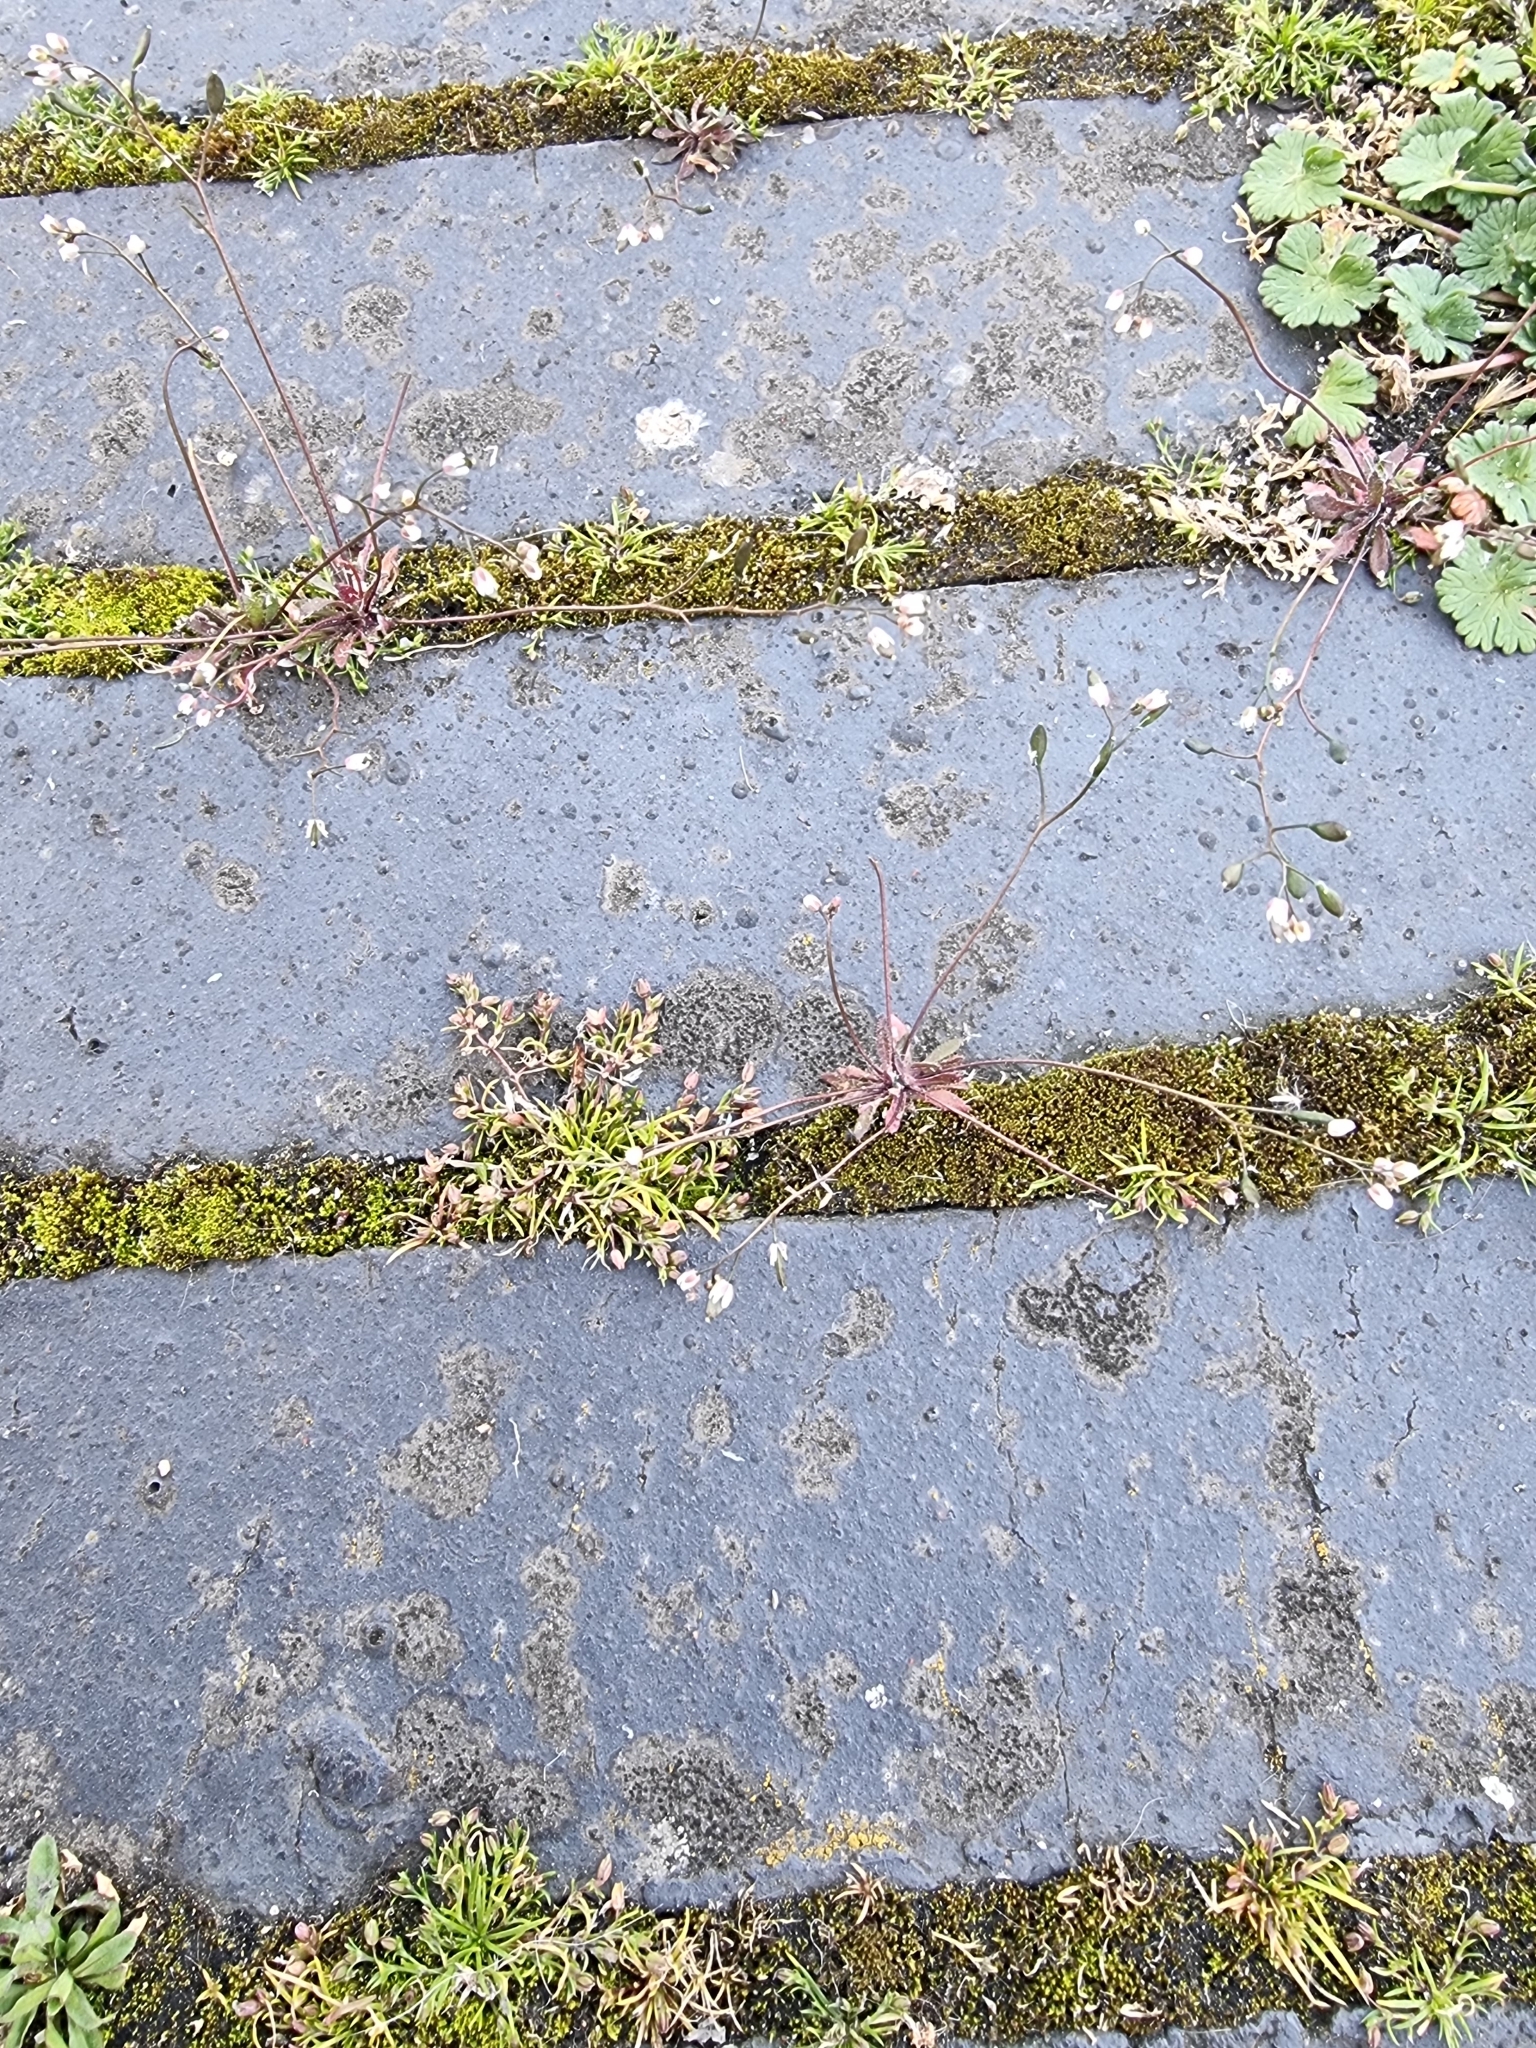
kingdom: Plantae
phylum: Tracheophyta
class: Magnoliopsida
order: Brassicales
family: Brassicaceae
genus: Draba
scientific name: Draba verna
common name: Spring draba
